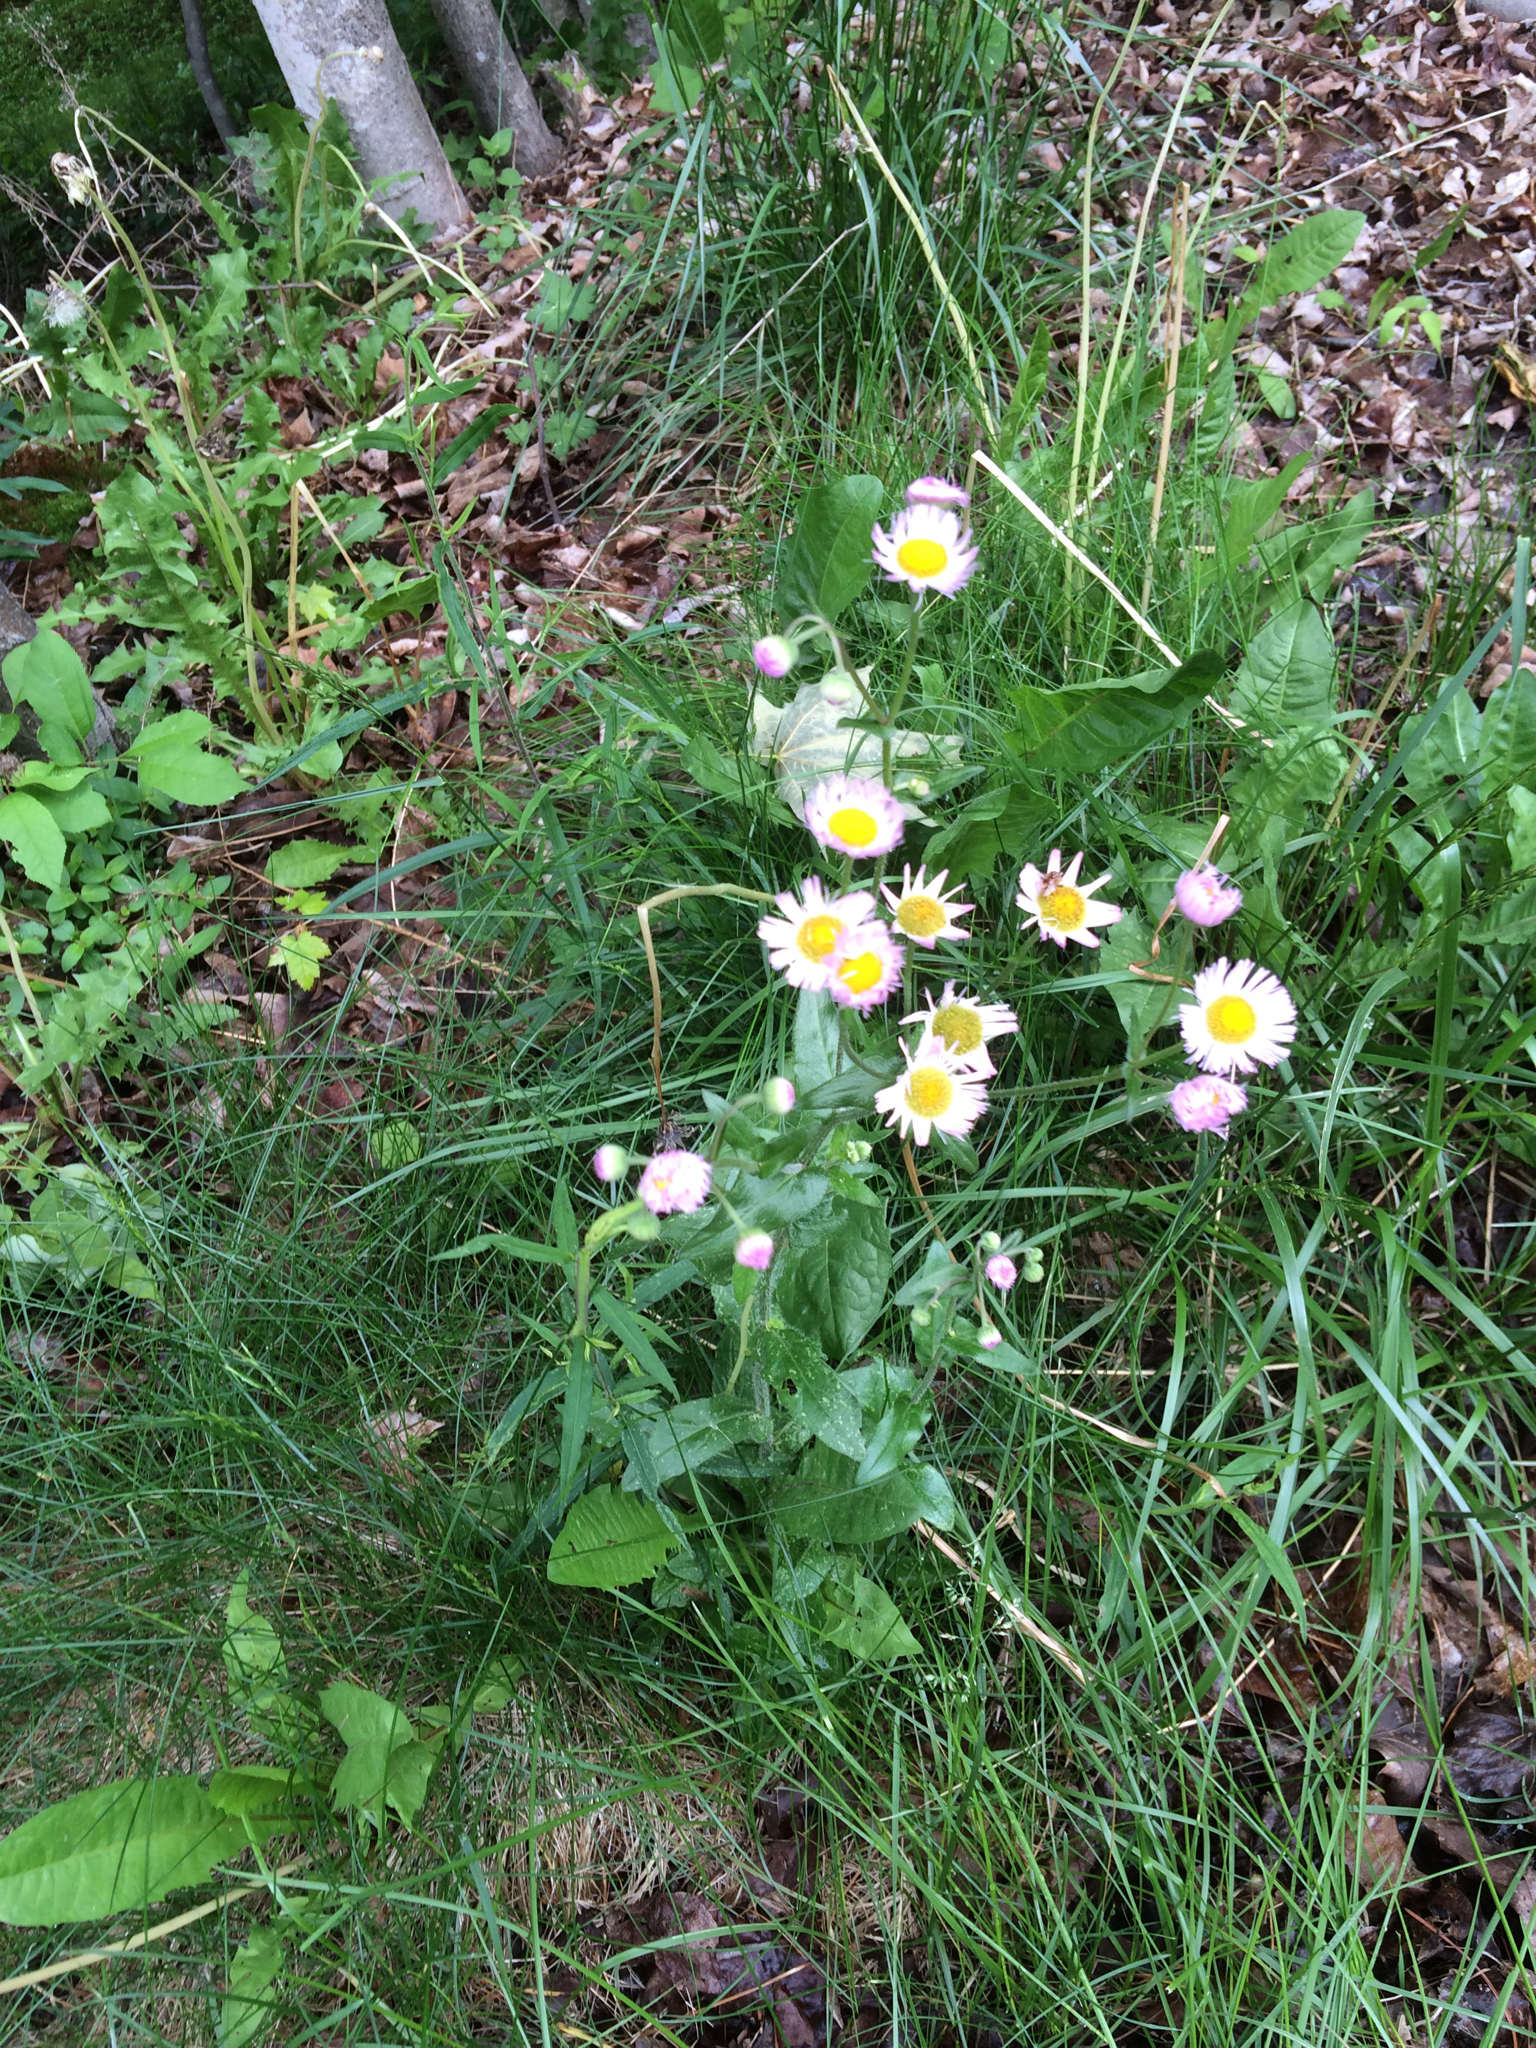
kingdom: Plantae
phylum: Tracheophyta
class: Magnoliopsida
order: Asterales
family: Asteraceae
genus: Erigeron
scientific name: Erigeron philadelphicus
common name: Robin's-plantain
